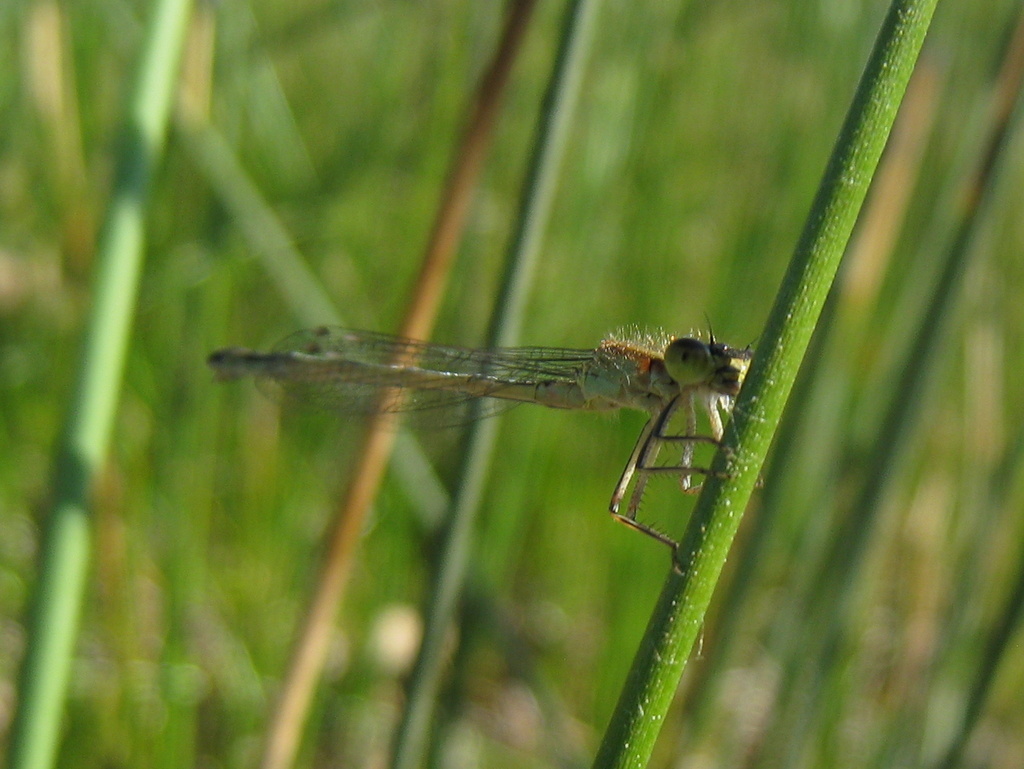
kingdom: Animalia
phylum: Arthropoda
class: Insecta
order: Odonata
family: Coenagrionidae
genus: Ischnura
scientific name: Ischnura genei
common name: Island bluetail
